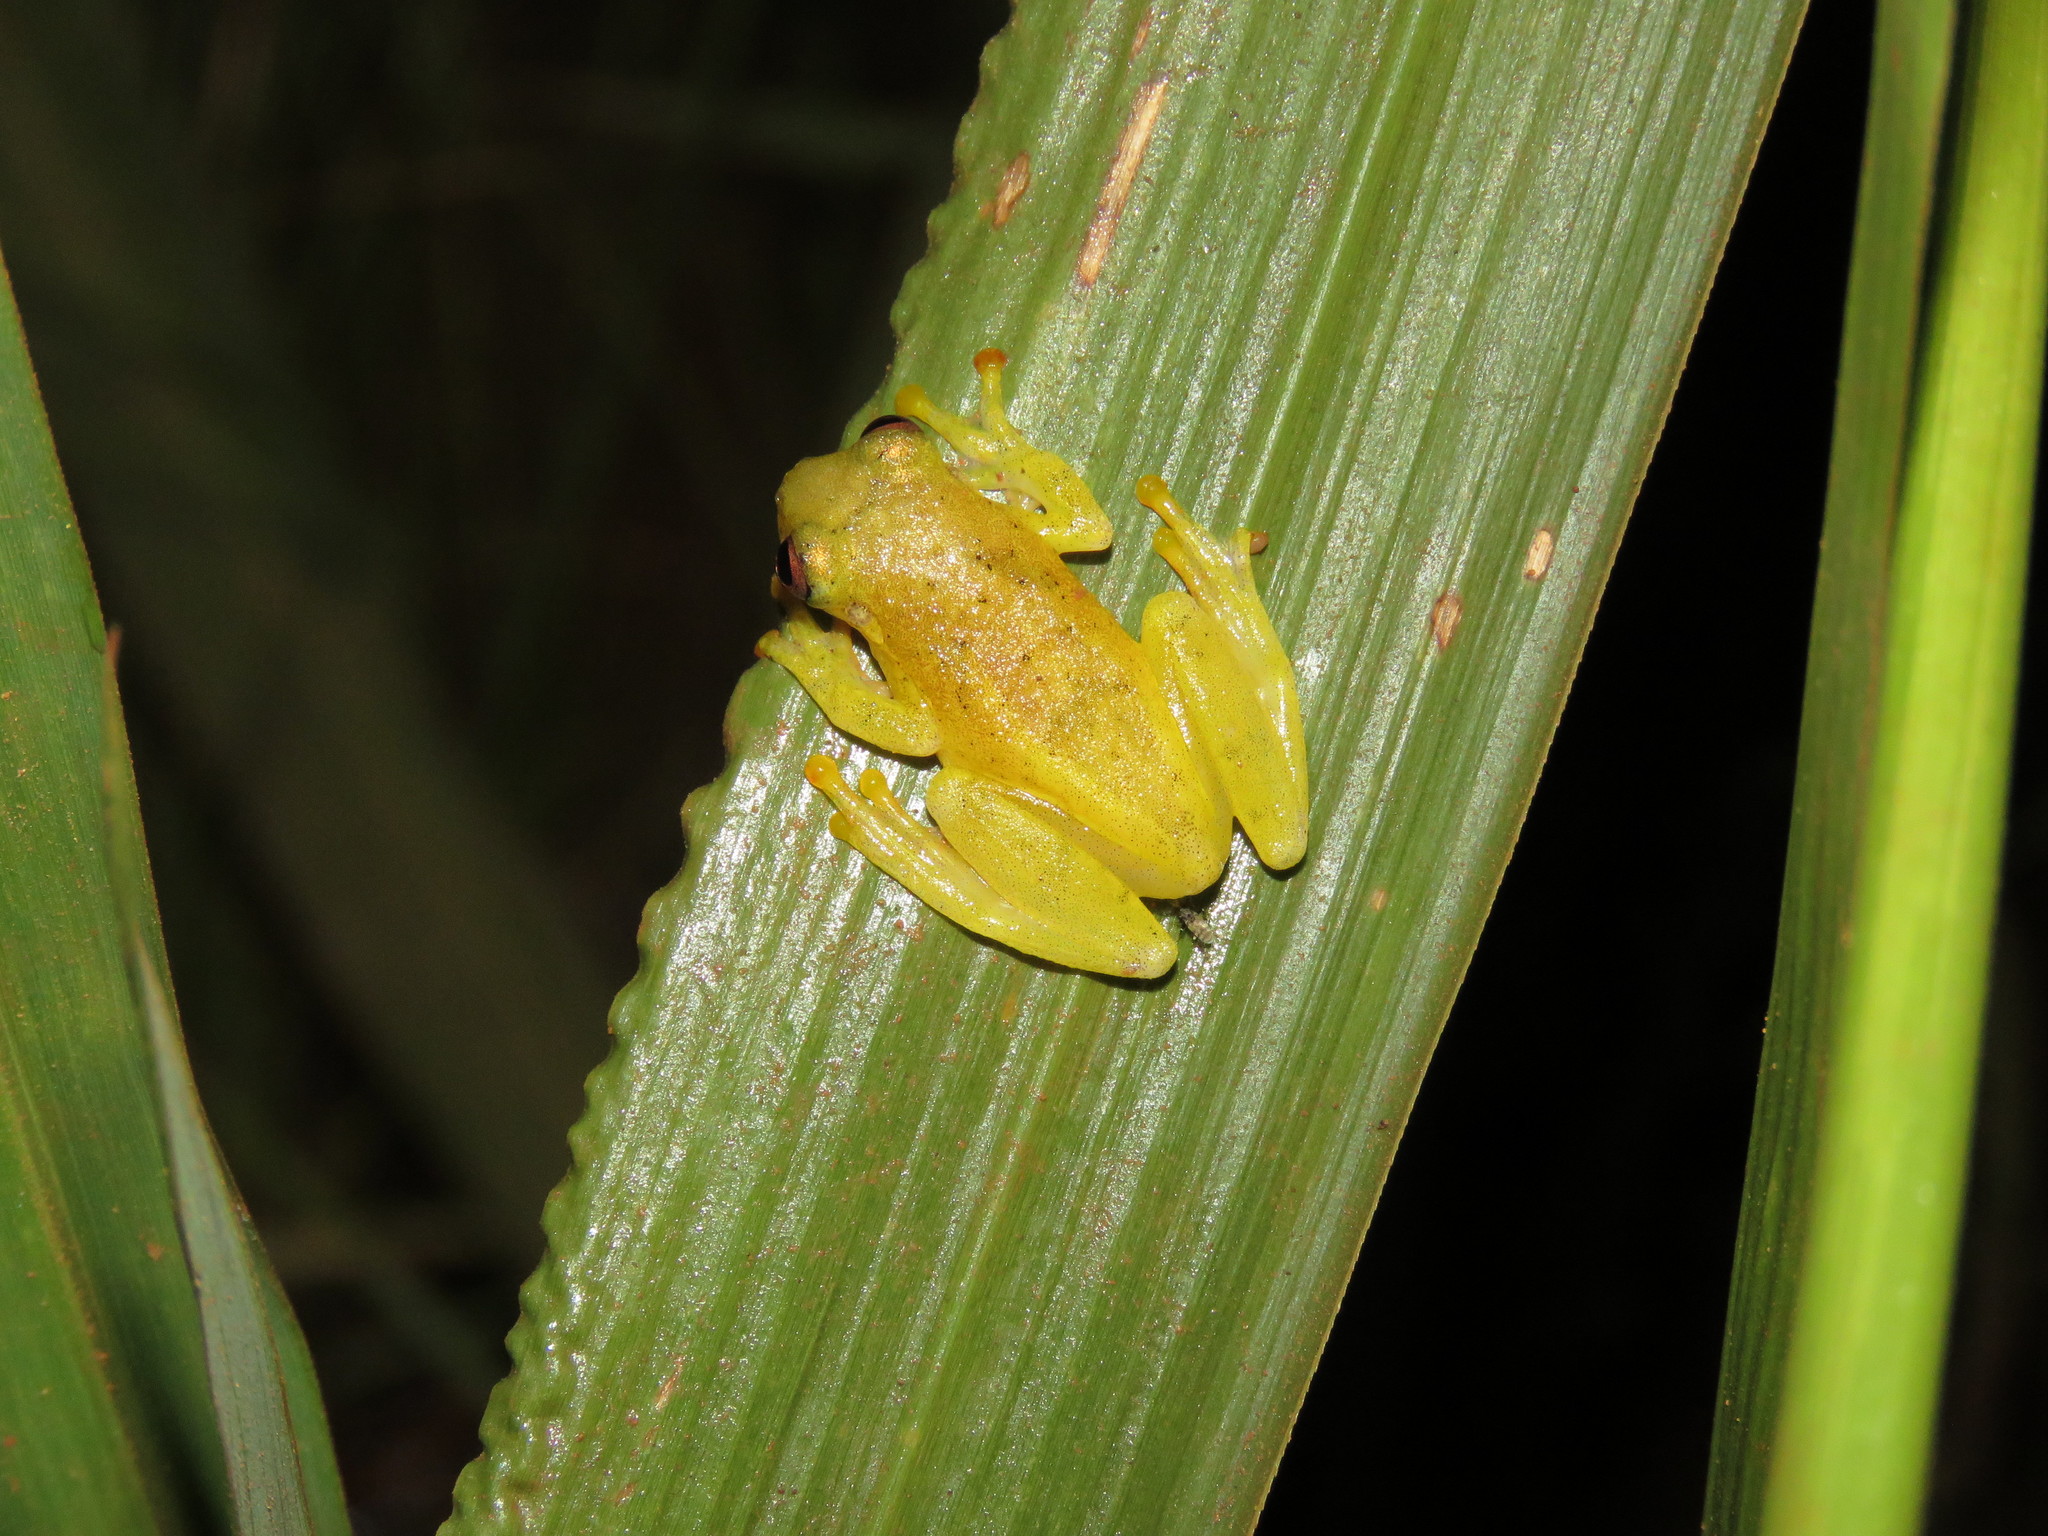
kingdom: Animalia
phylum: Chordata
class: Amphibia
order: Anura
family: Hylidae
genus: Dendropsophus
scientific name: Dendropsophus joannae
